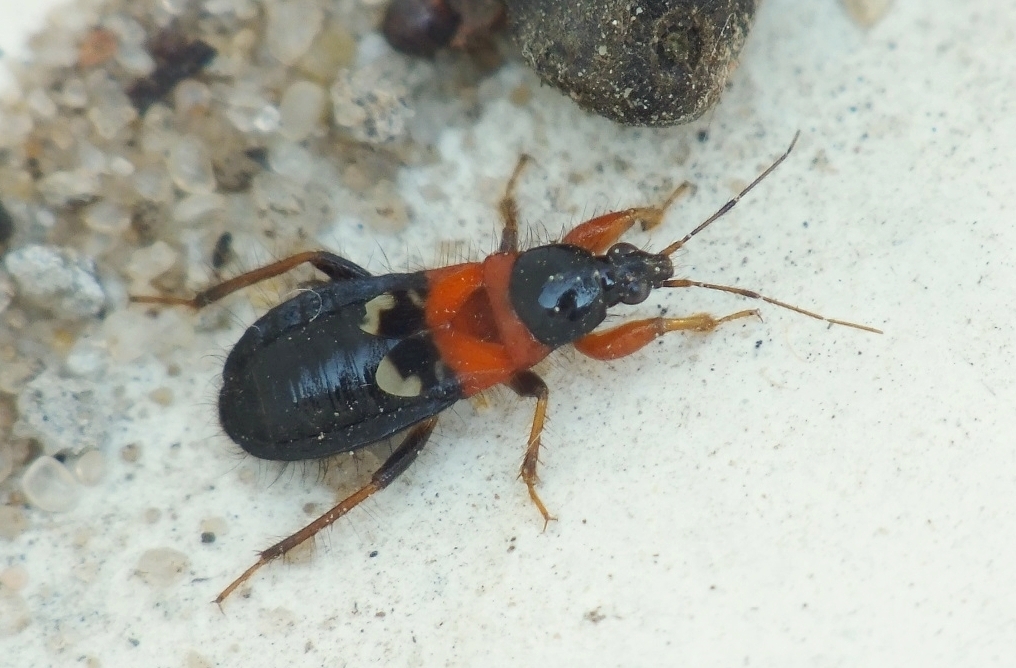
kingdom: Animalia
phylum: Arthropoda
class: Insecta
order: Hemiptera
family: Nabidae
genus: Prostemma
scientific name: Prostemma sanguineum
